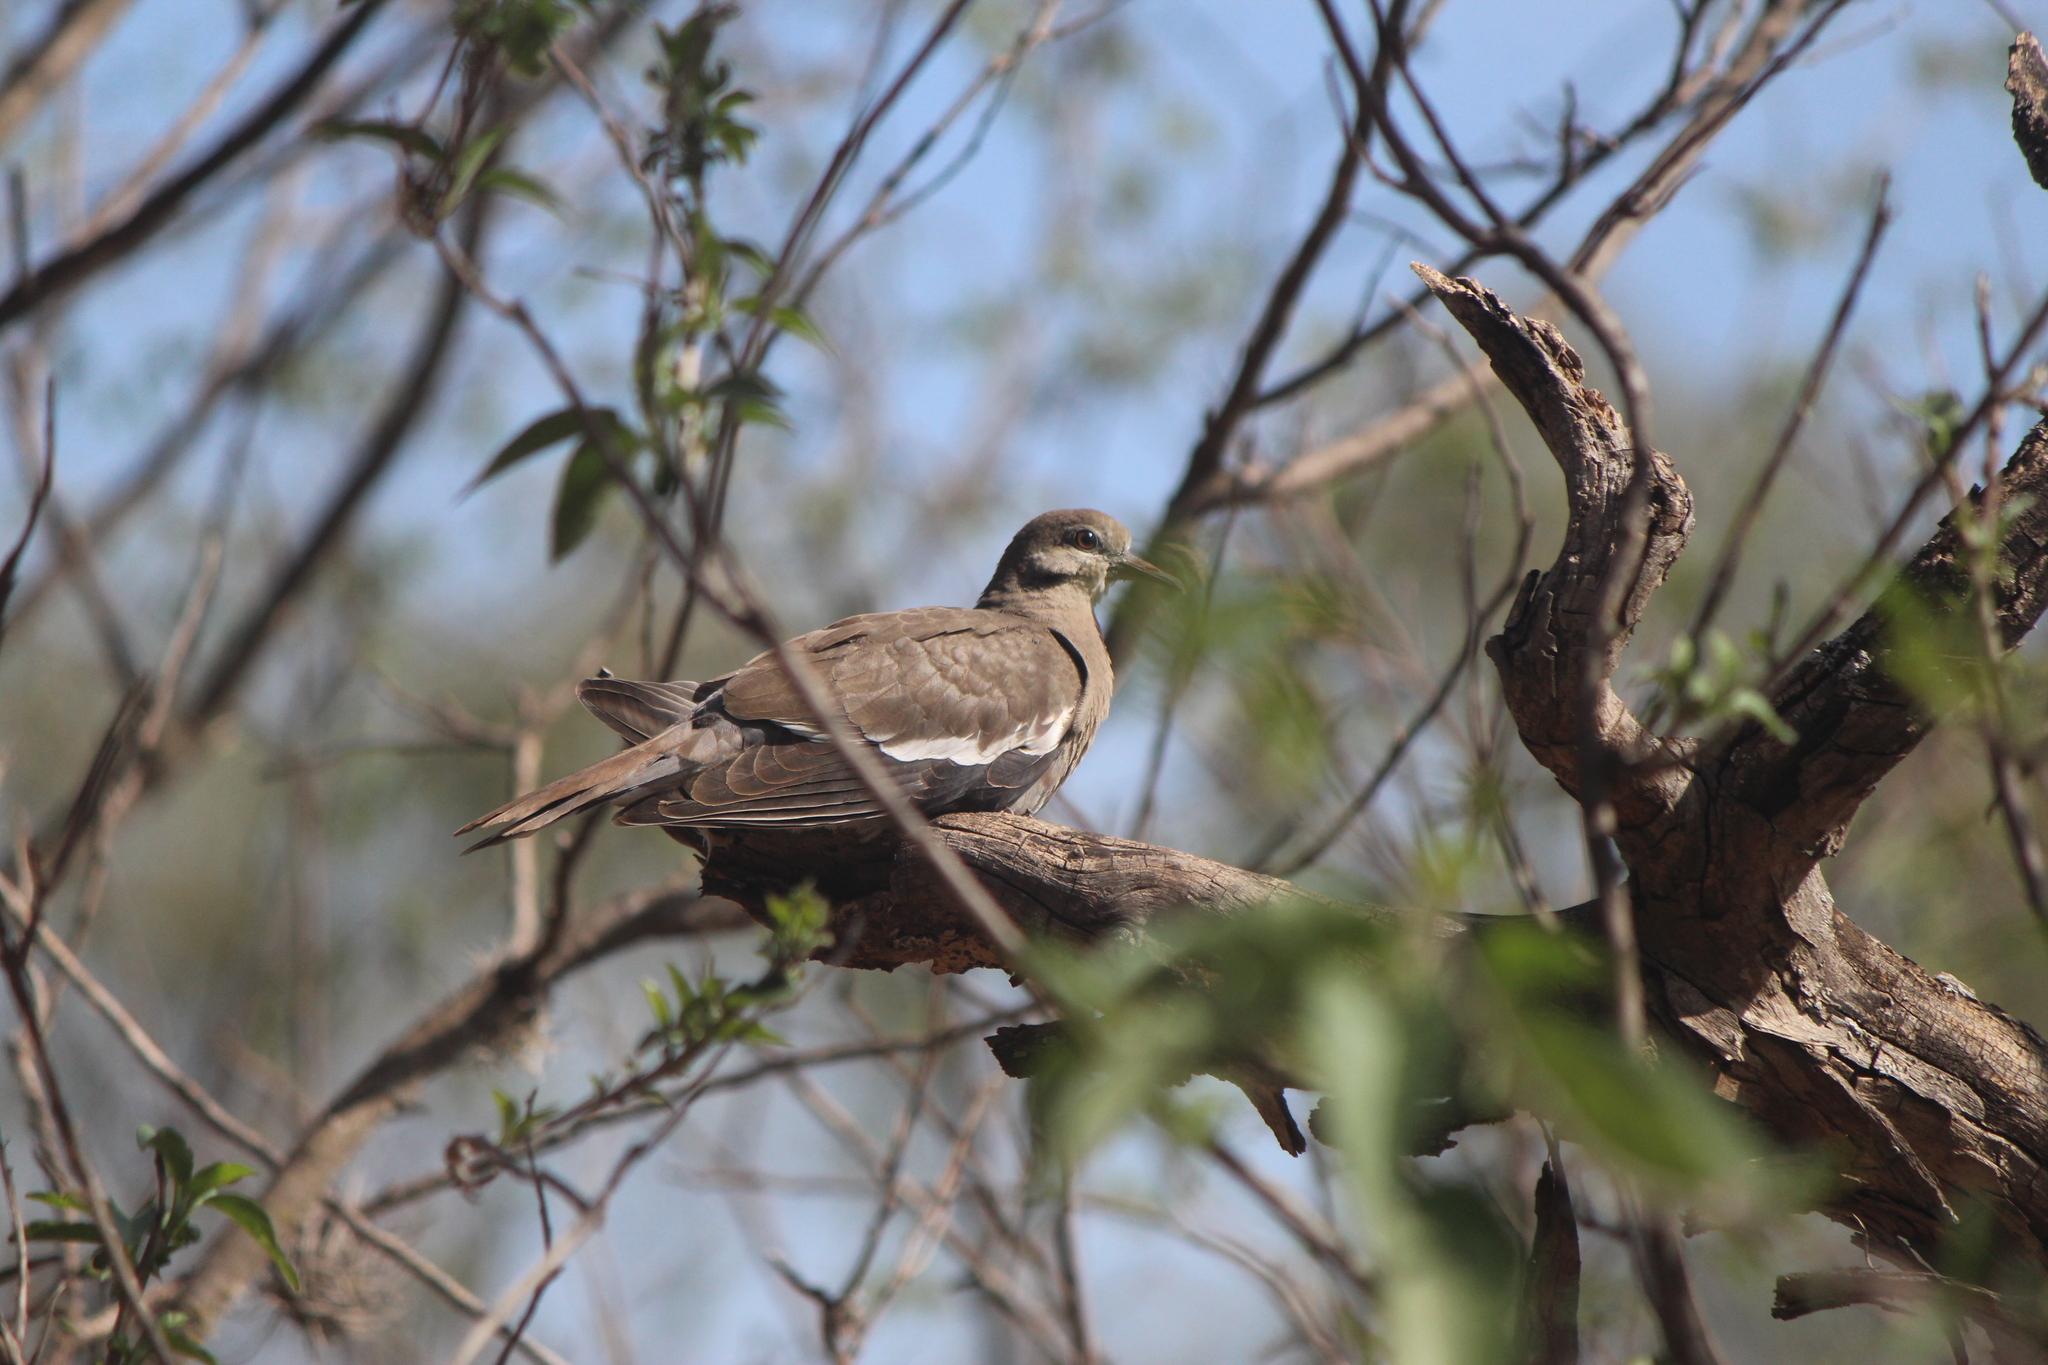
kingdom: Animalia
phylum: Chordata
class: Aves
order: Columbiformes
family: Columbidae
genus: Zenaida
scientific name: Zenaida asiatica
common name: White-winged dove
